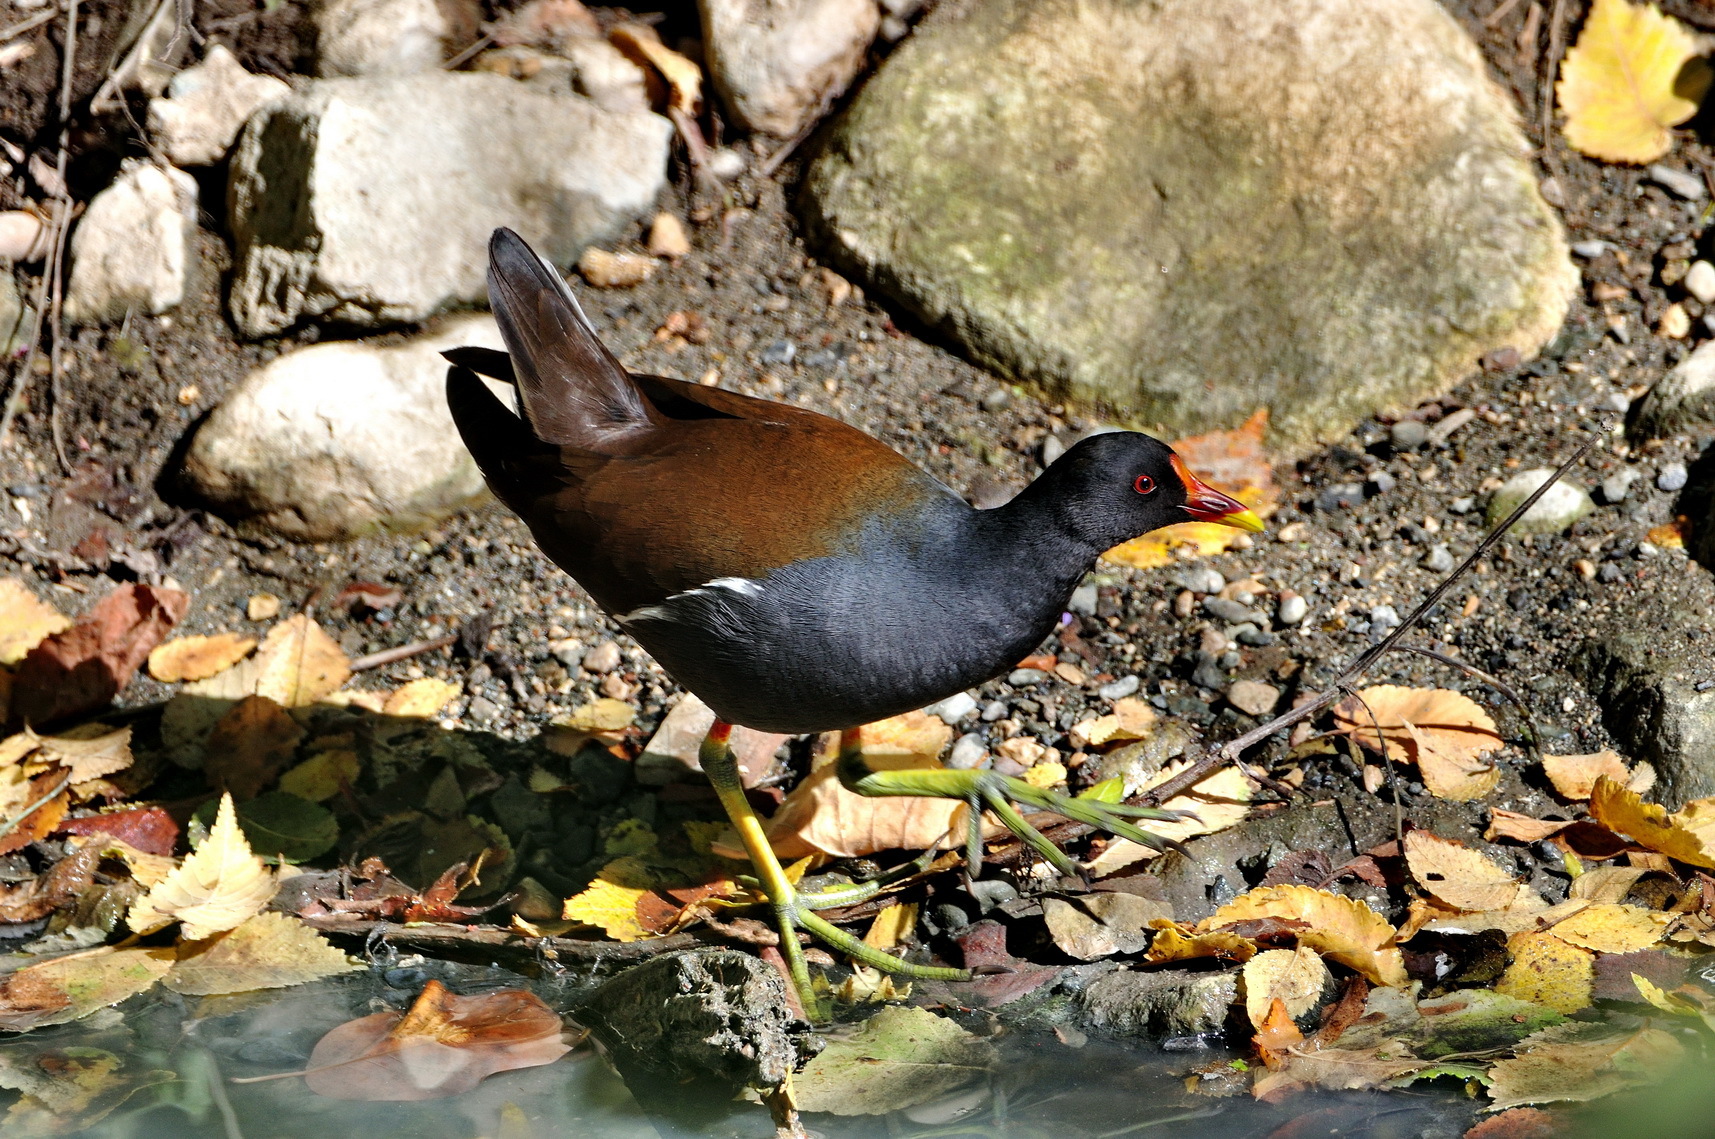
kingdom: Animalia
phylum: Chordata
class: Aves
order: Gruiformes
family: Rallidae
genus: Gallinula
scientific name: Gallinula chloropus
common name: Common moorhen
